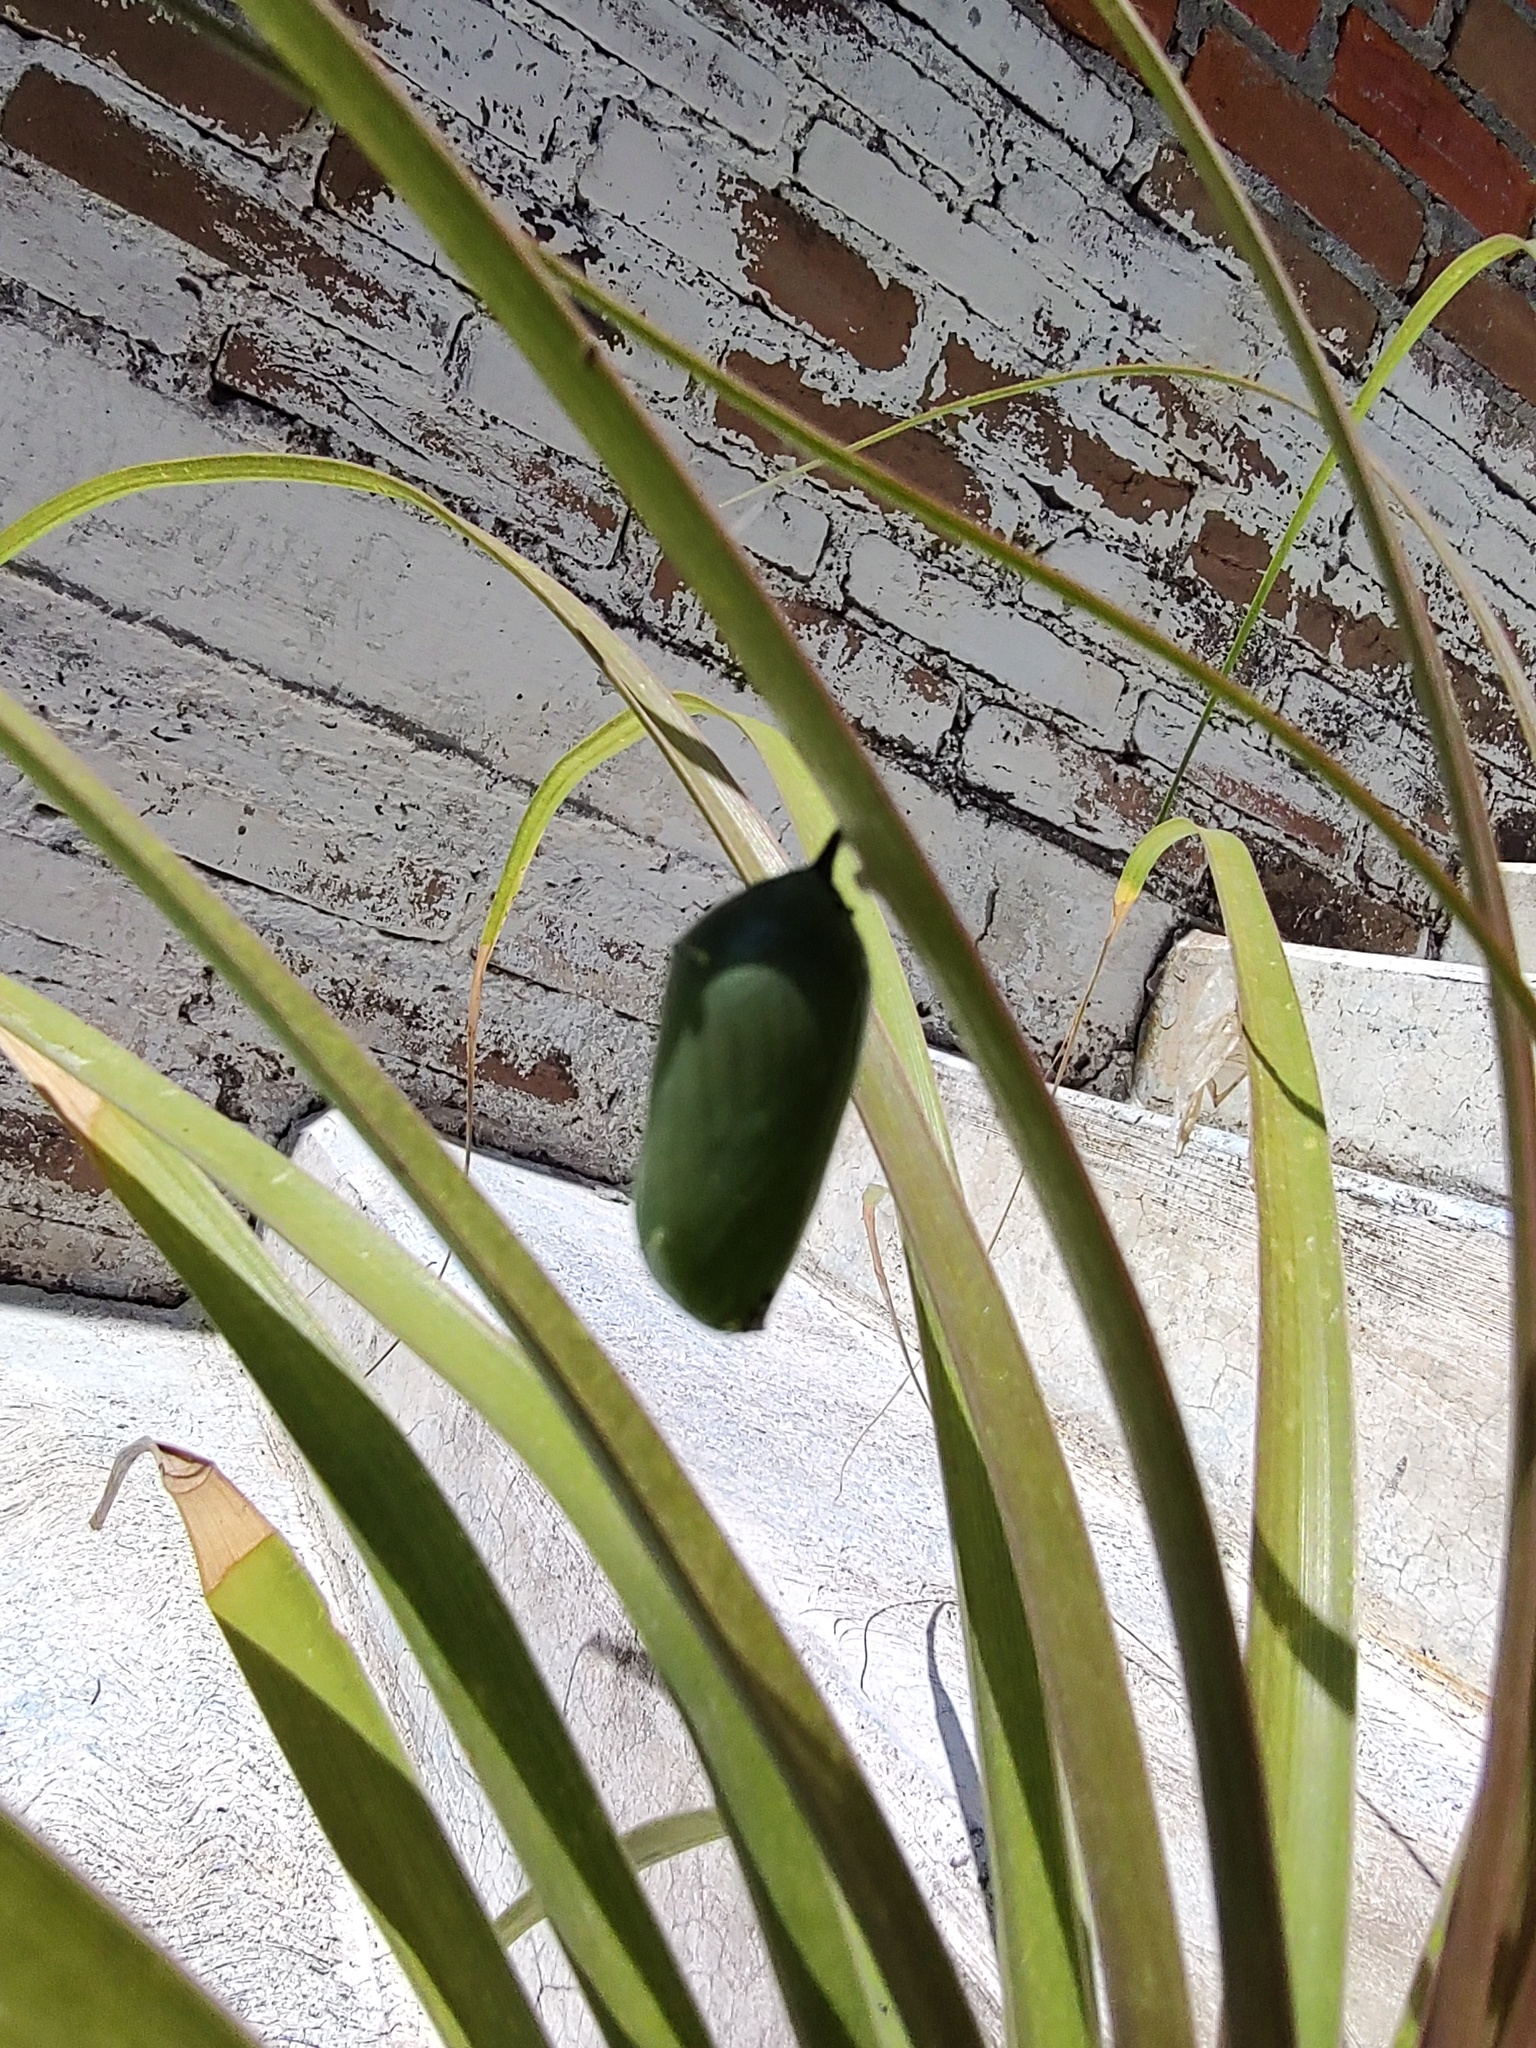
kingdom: Animalia
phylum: Arthropoda
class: Insecta
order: Lepidoptera
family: Nymphalidae
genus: Danaus
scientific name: Danaus plexippus
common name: Monarch
